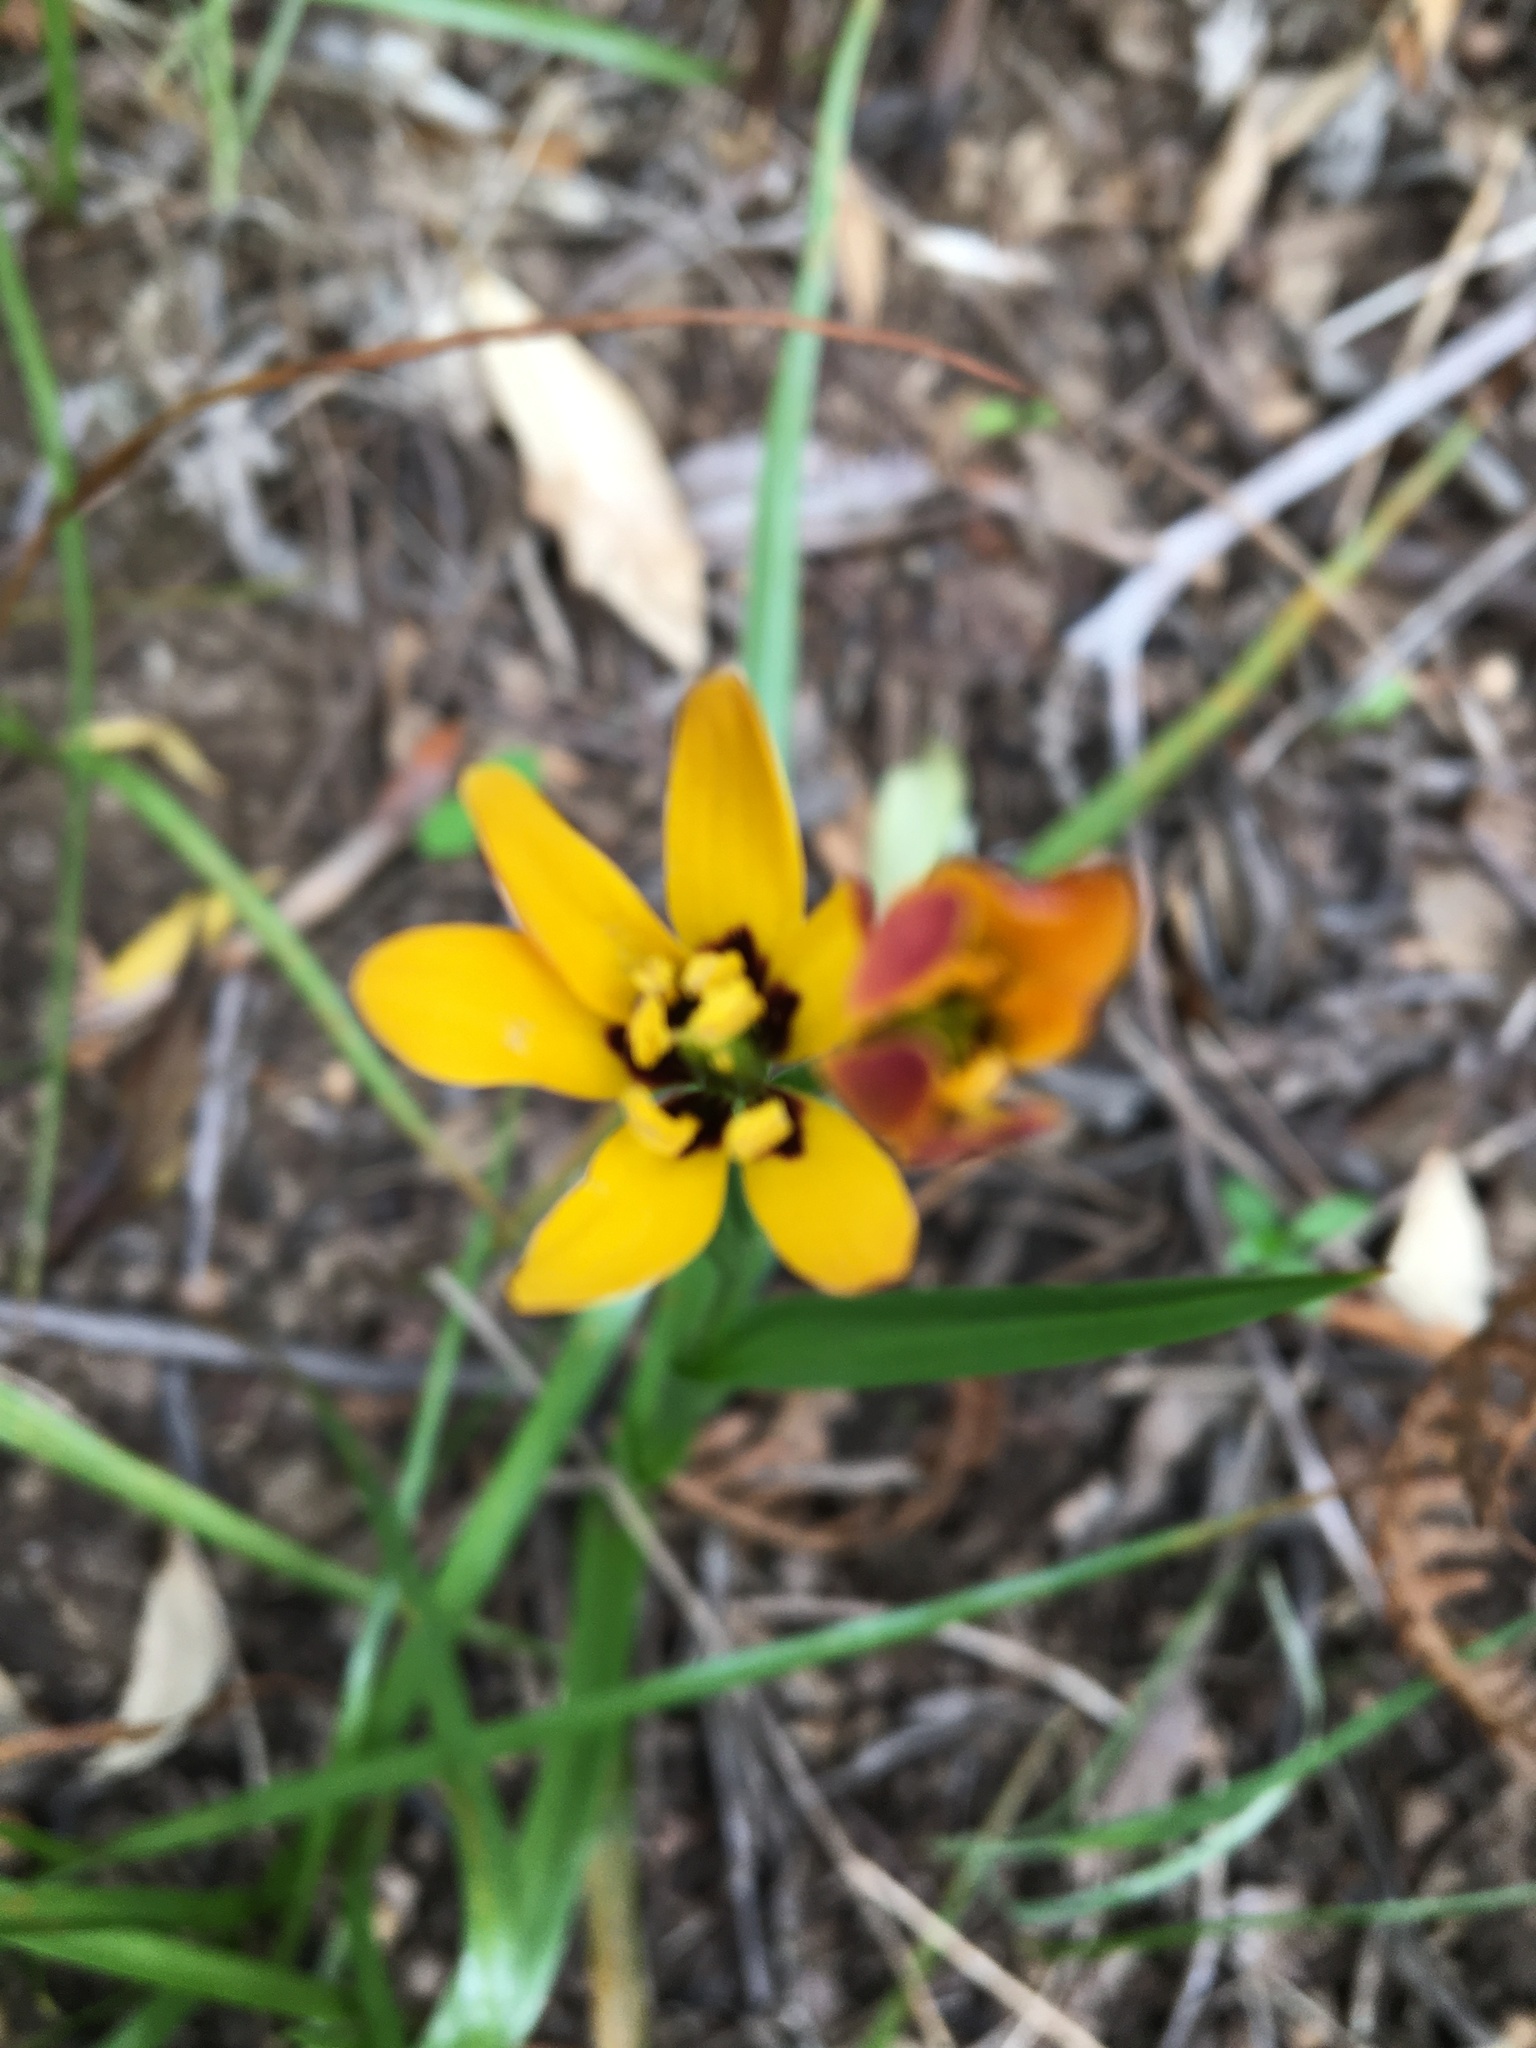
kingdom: Plantae
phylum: Tracheophyta
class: Liliopsida
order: Liliales
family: Colchicaceae
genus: Baeometra
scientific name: Baeometra uniflora
